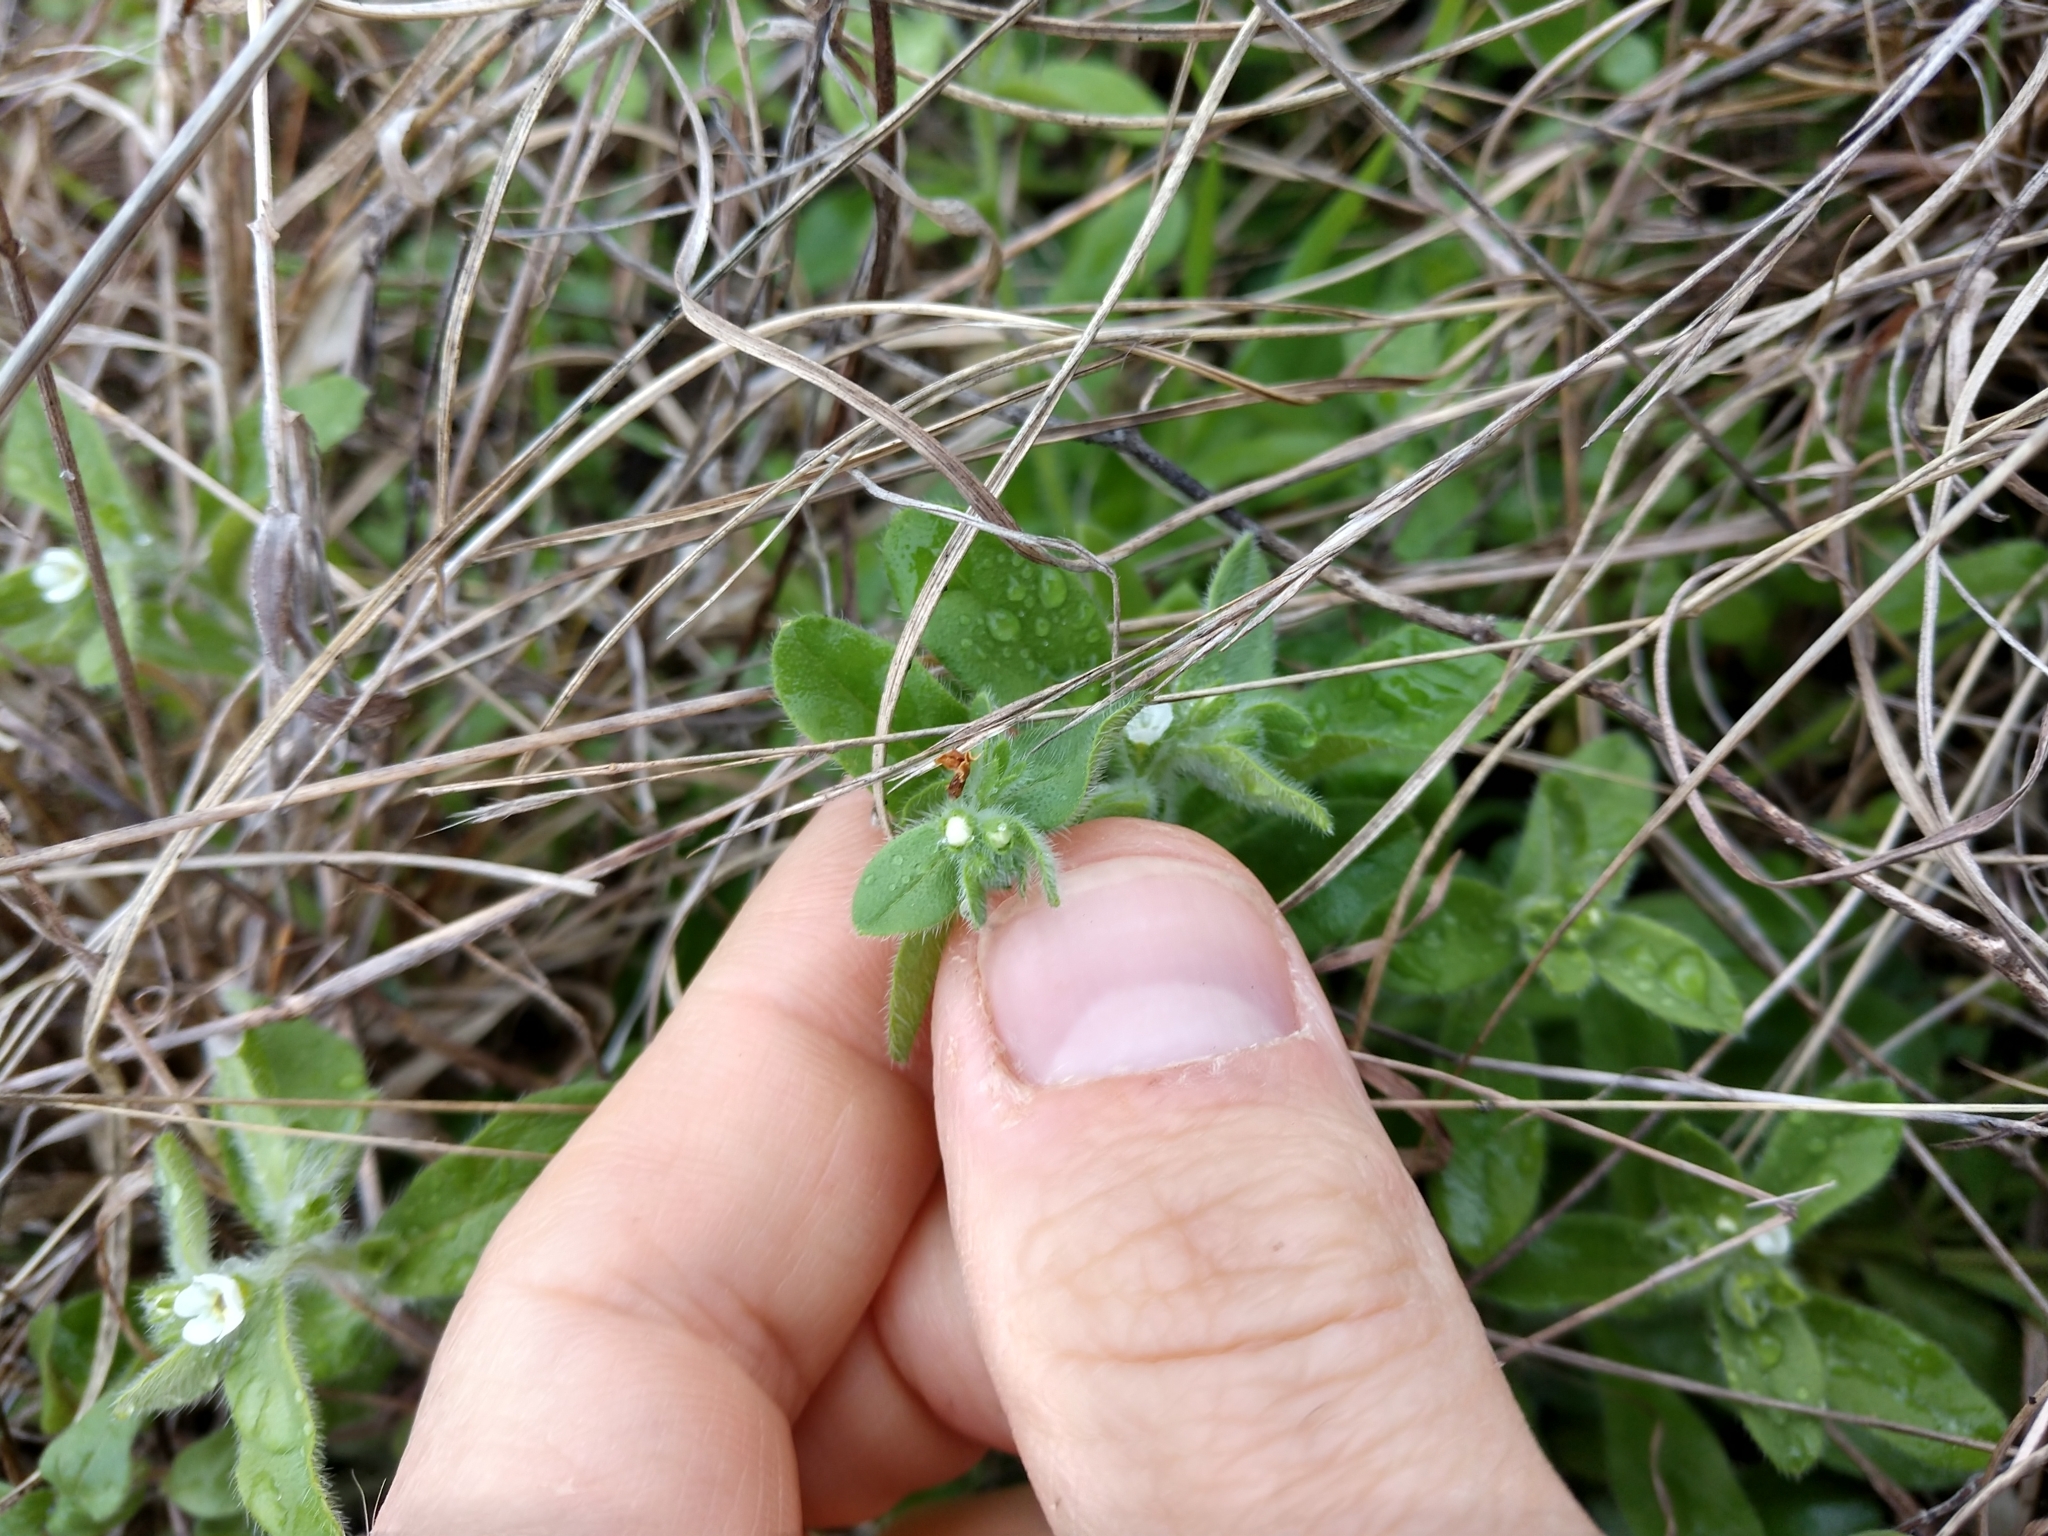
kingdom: Plantae
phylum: Tracheophyta
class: Magnoliopsida
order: Boraginales
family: Boraginaceae
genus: Lithospermum
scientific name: Lithospermum matamorense
